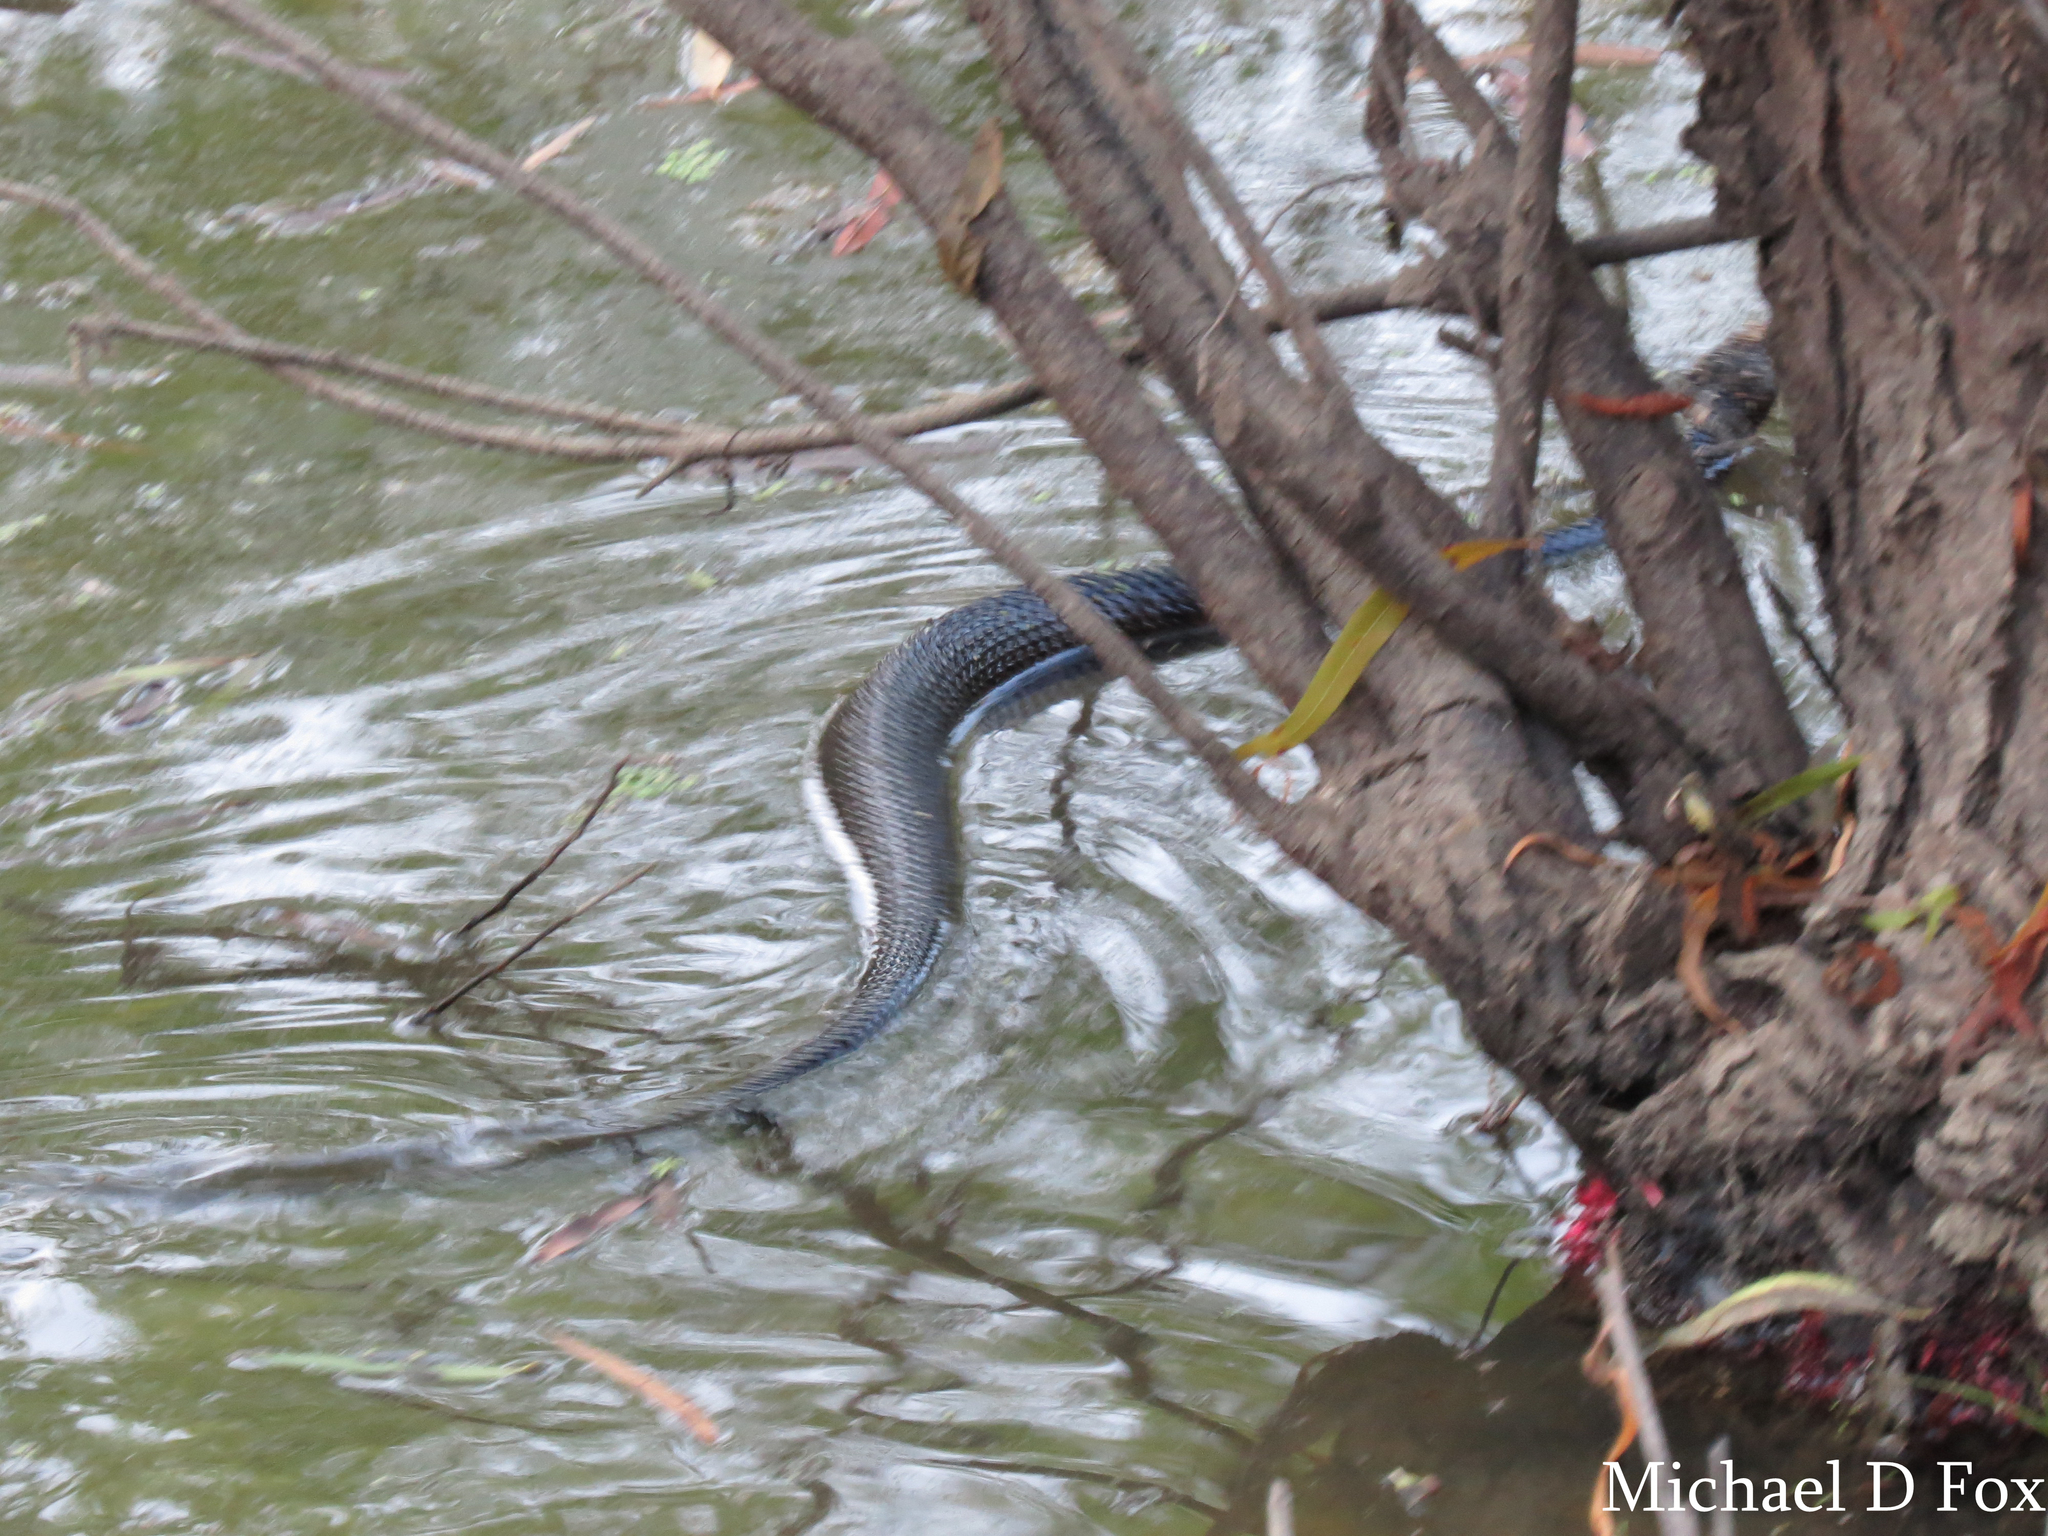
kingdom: Animalia
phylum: Chordata
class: Squamata
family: Viperidae
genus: Agkistrodon
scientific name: Agkistrodon piscivorus
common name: Cottonmouth
